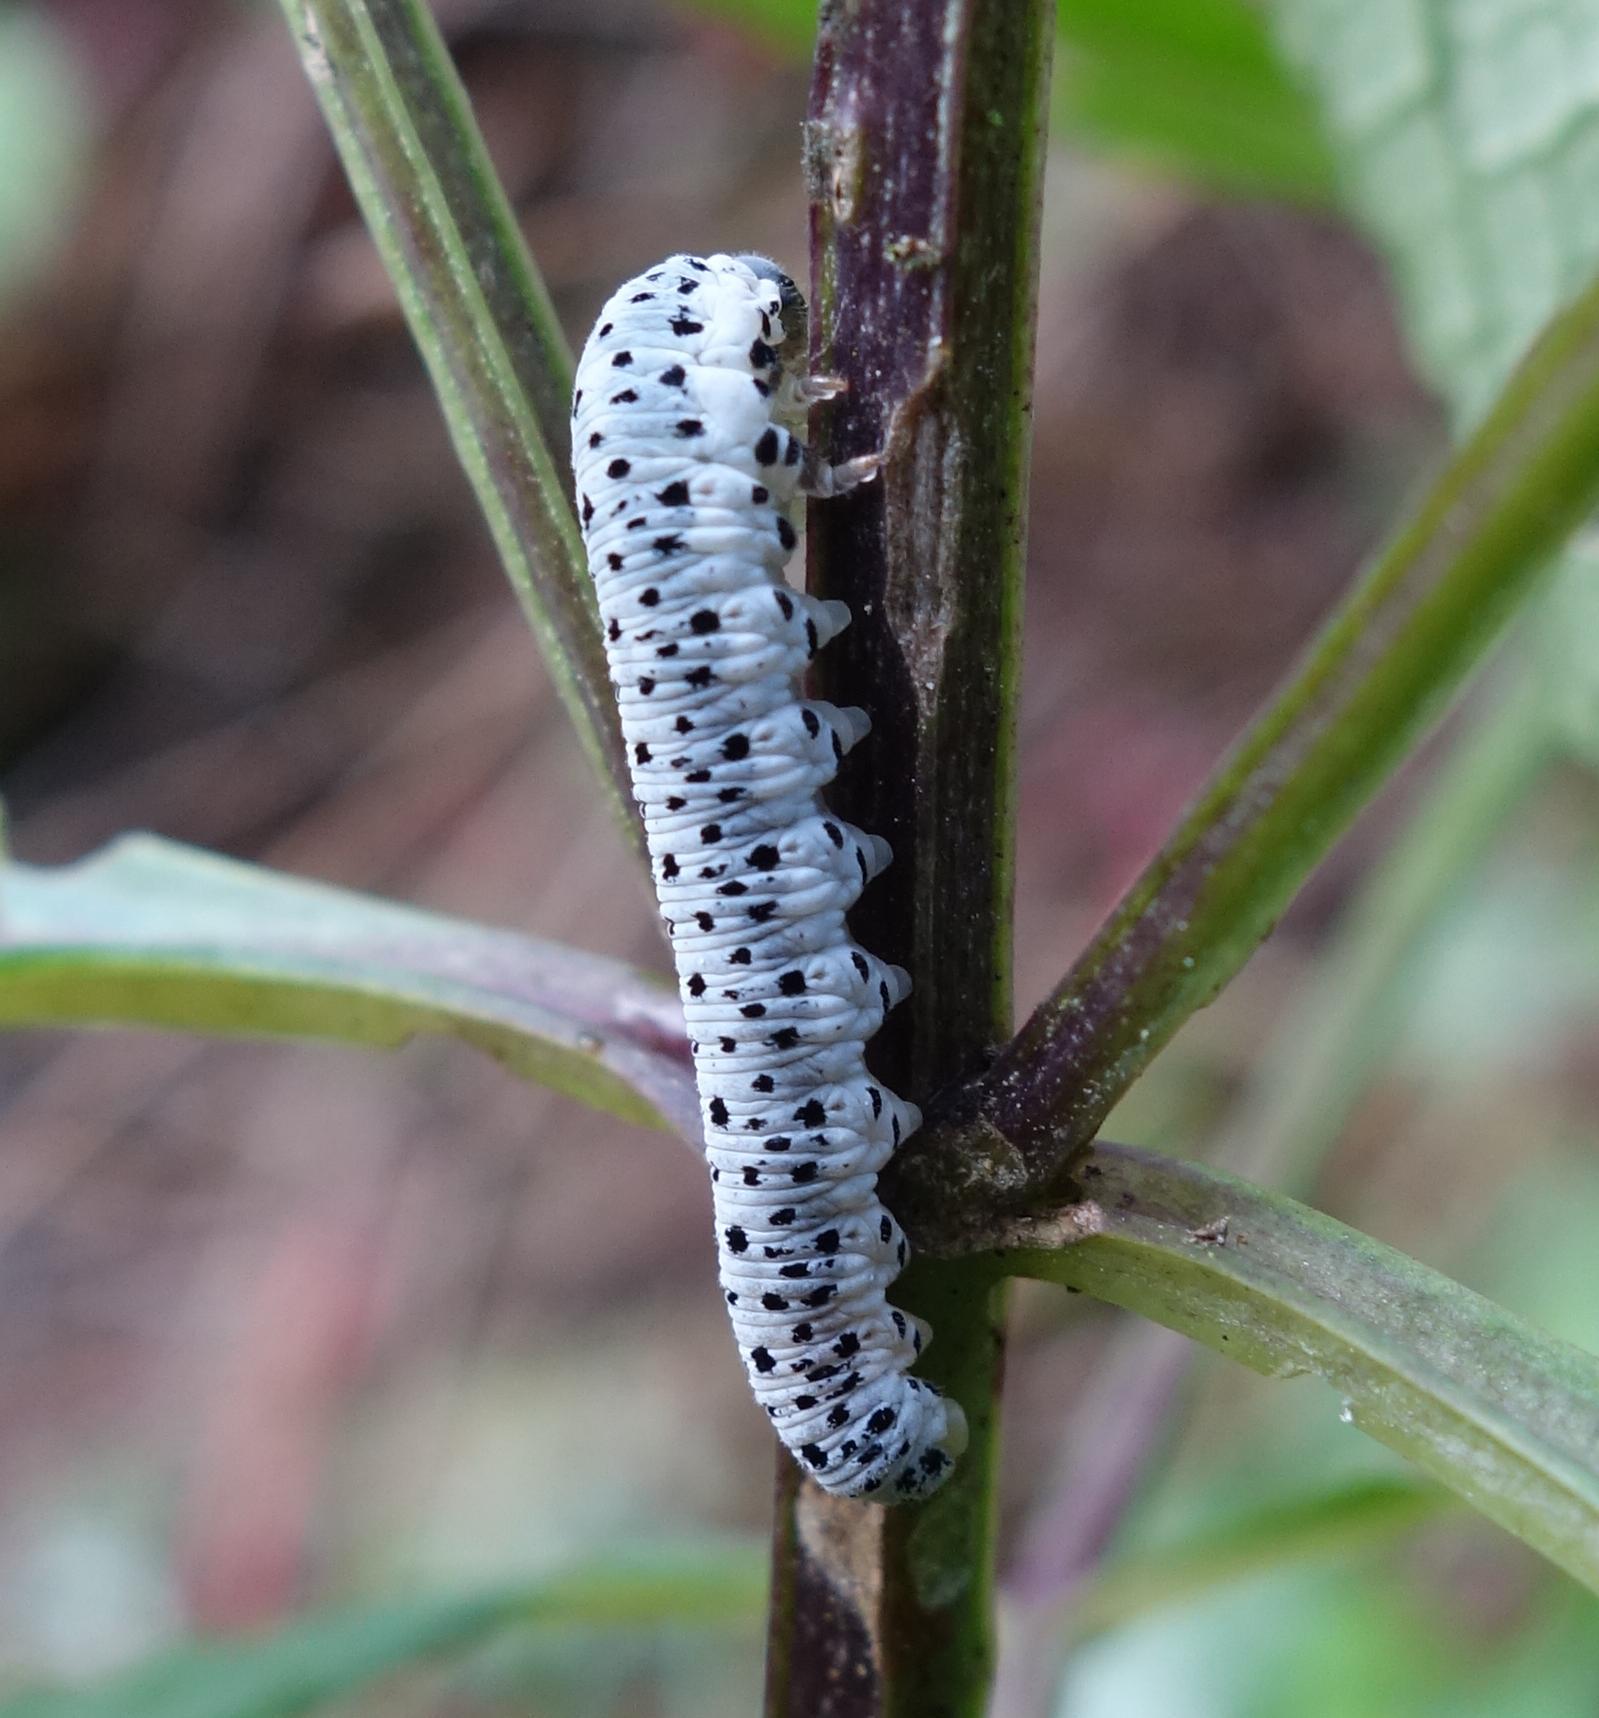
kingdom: Animalia
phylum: Arthropoda
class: Insecta
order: Hymenoptera
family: Tenthredinidae
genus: Tenthredo
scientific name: Tenthredo scrophulariae
